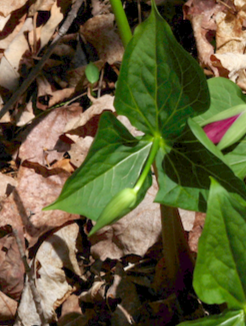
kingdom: Plantae
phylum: Tracheophyta
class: Liliopsida
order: Liliales
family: Melanthiaceae
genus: Trillium
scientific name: Trillium erectum
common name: Purple trillium
